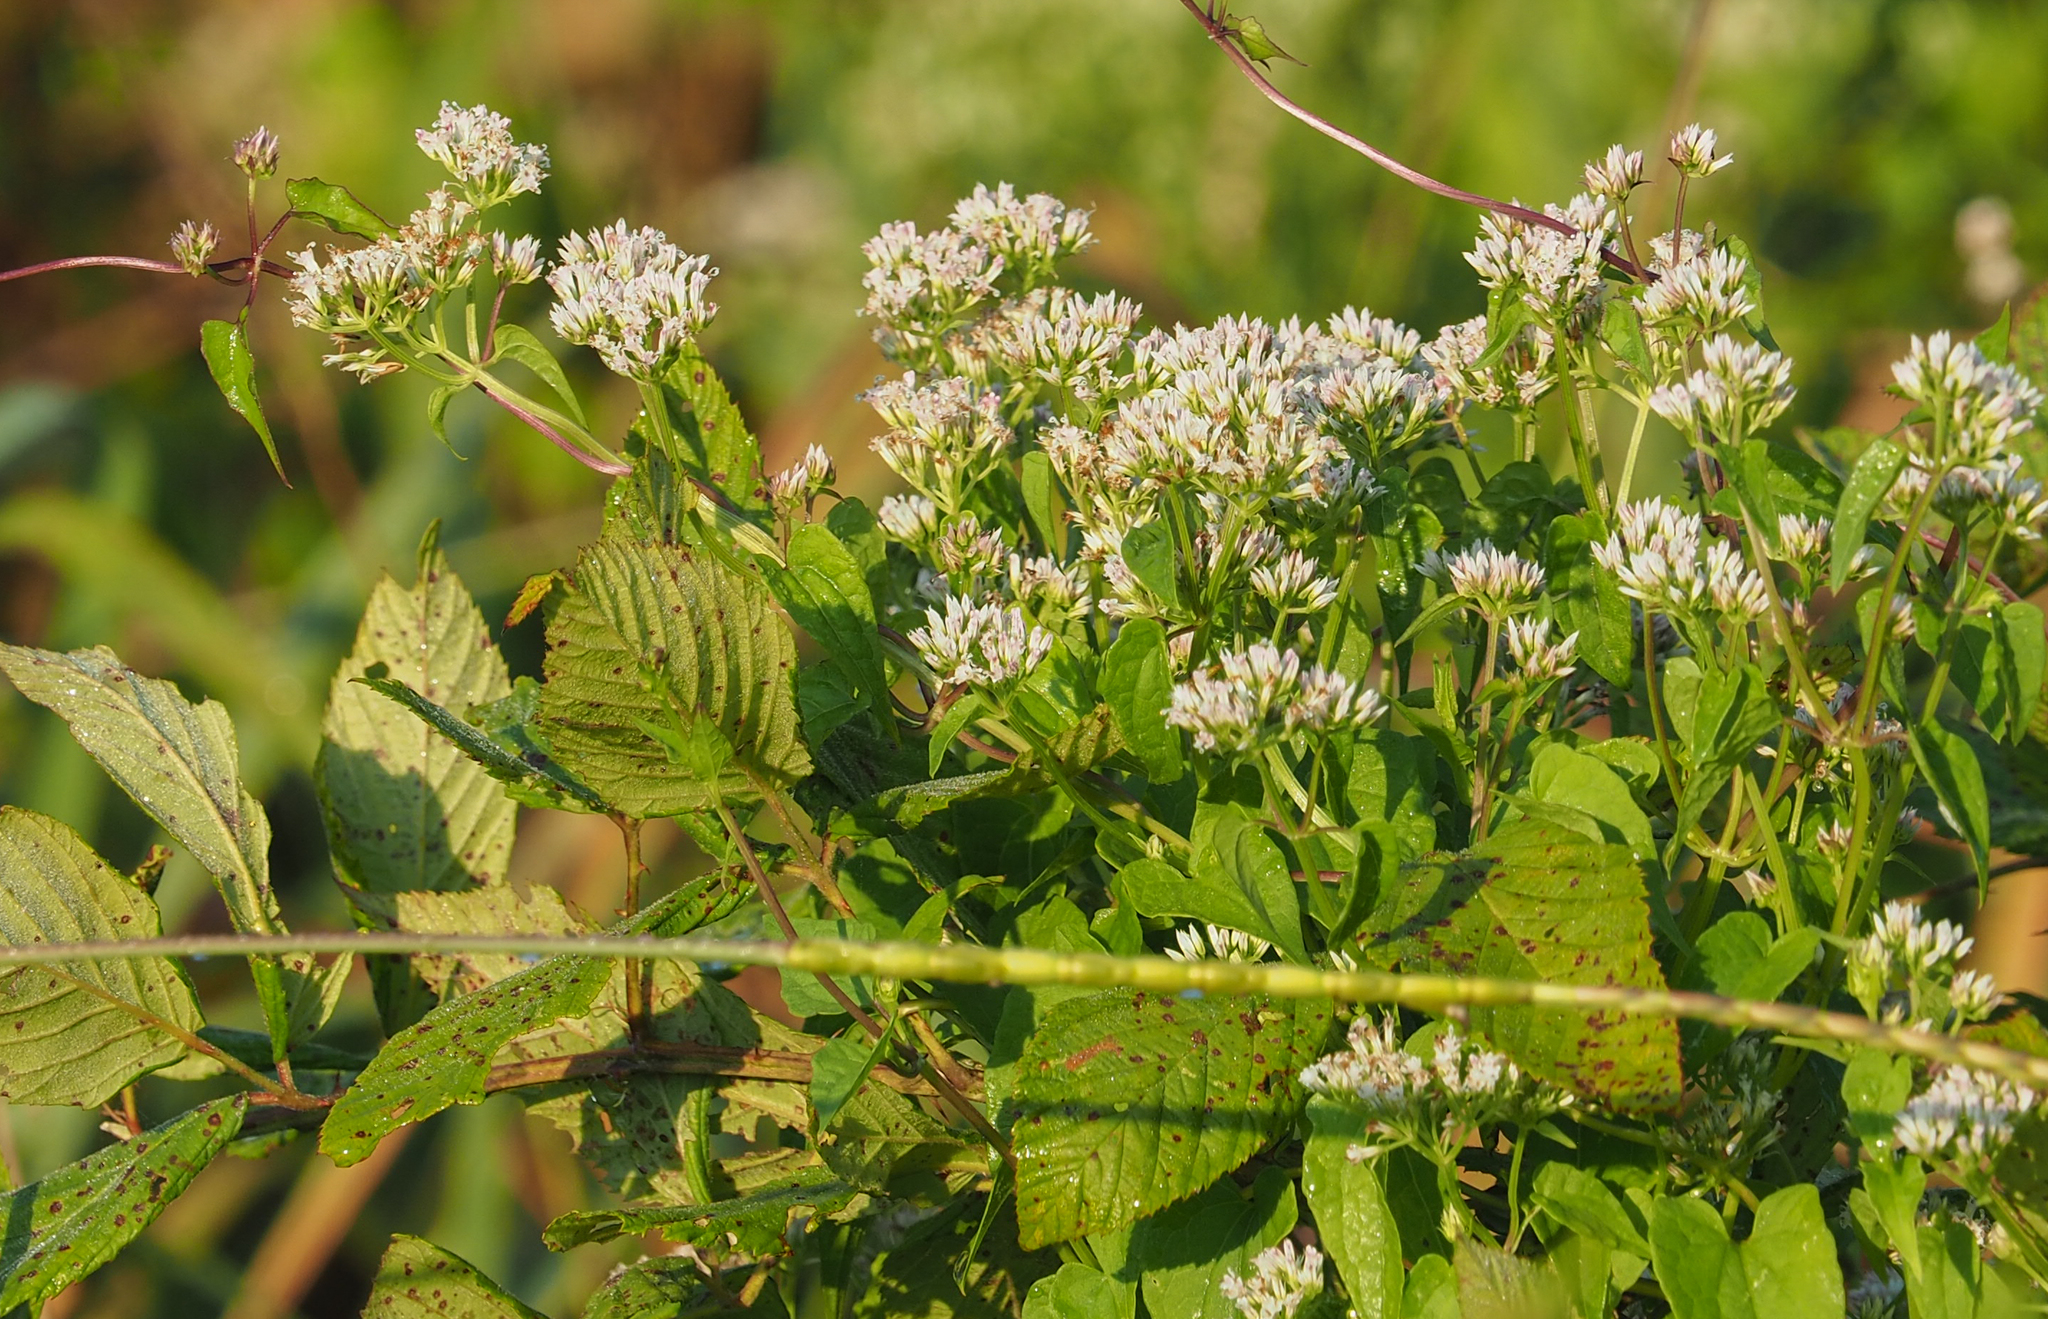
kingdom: Plantae
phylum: Tracheophyta
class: Magnoliopsida
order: Asterales
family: Asteraceae
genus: Mikania
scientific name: Mikania scandens
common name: Climbing hempvine
